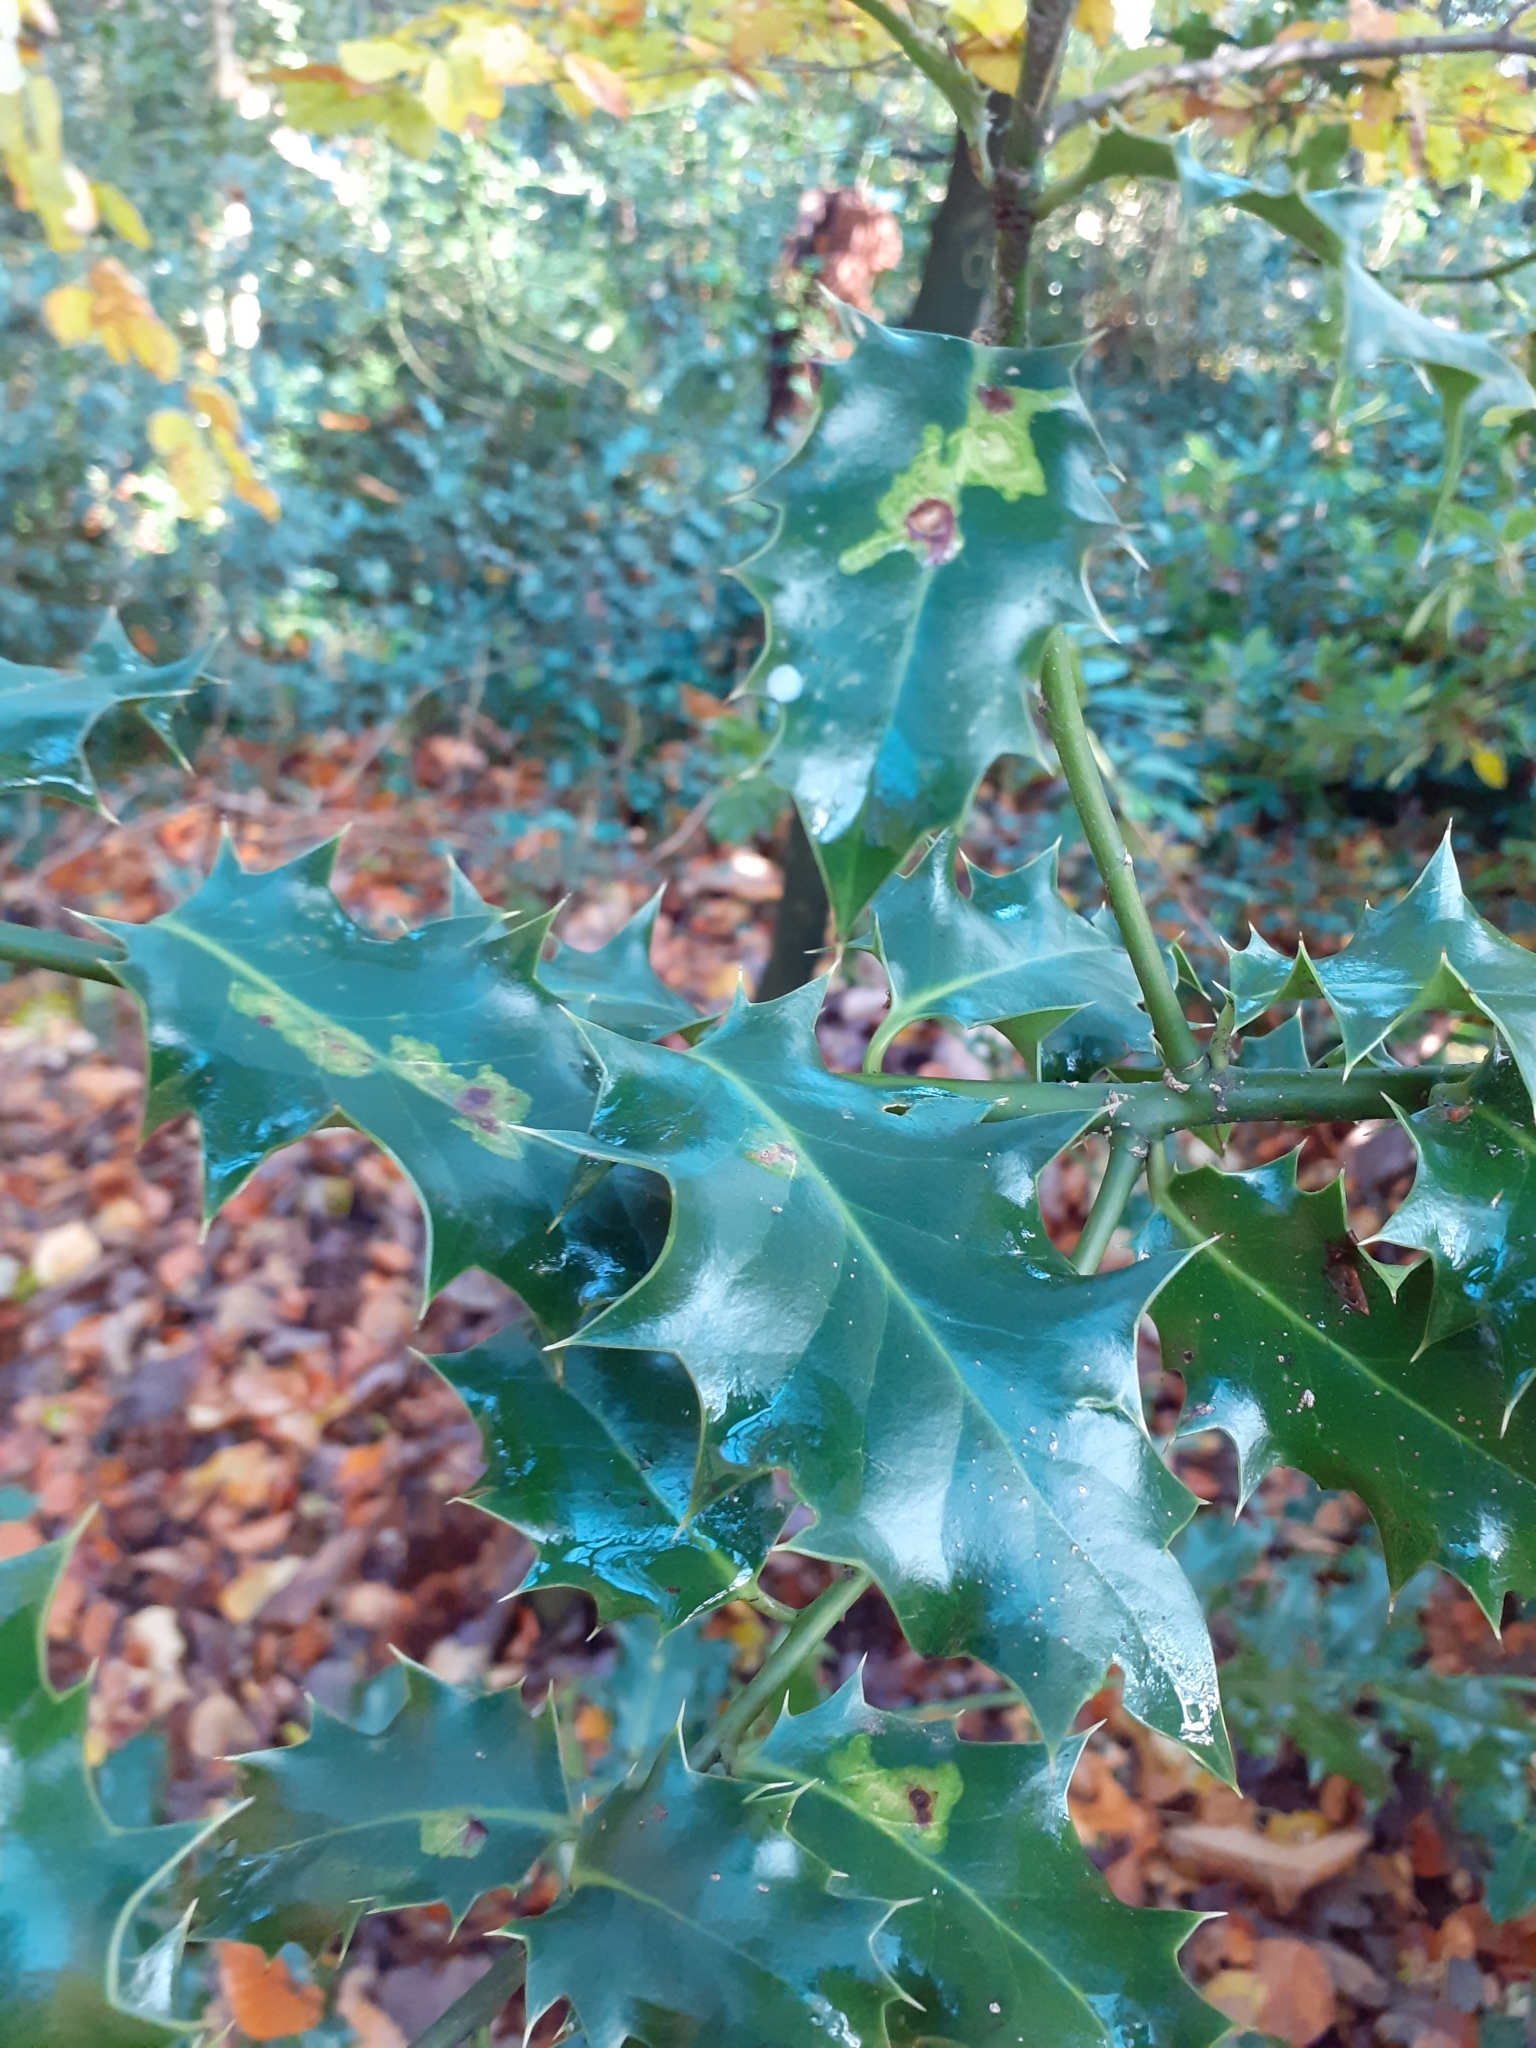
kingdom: Animalia
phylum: Arthropoda
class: Insecta
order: Diptera
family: Agromyzidae
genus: Phytomyza
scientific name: Phytomyza ilicis
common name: Holly leafminer
